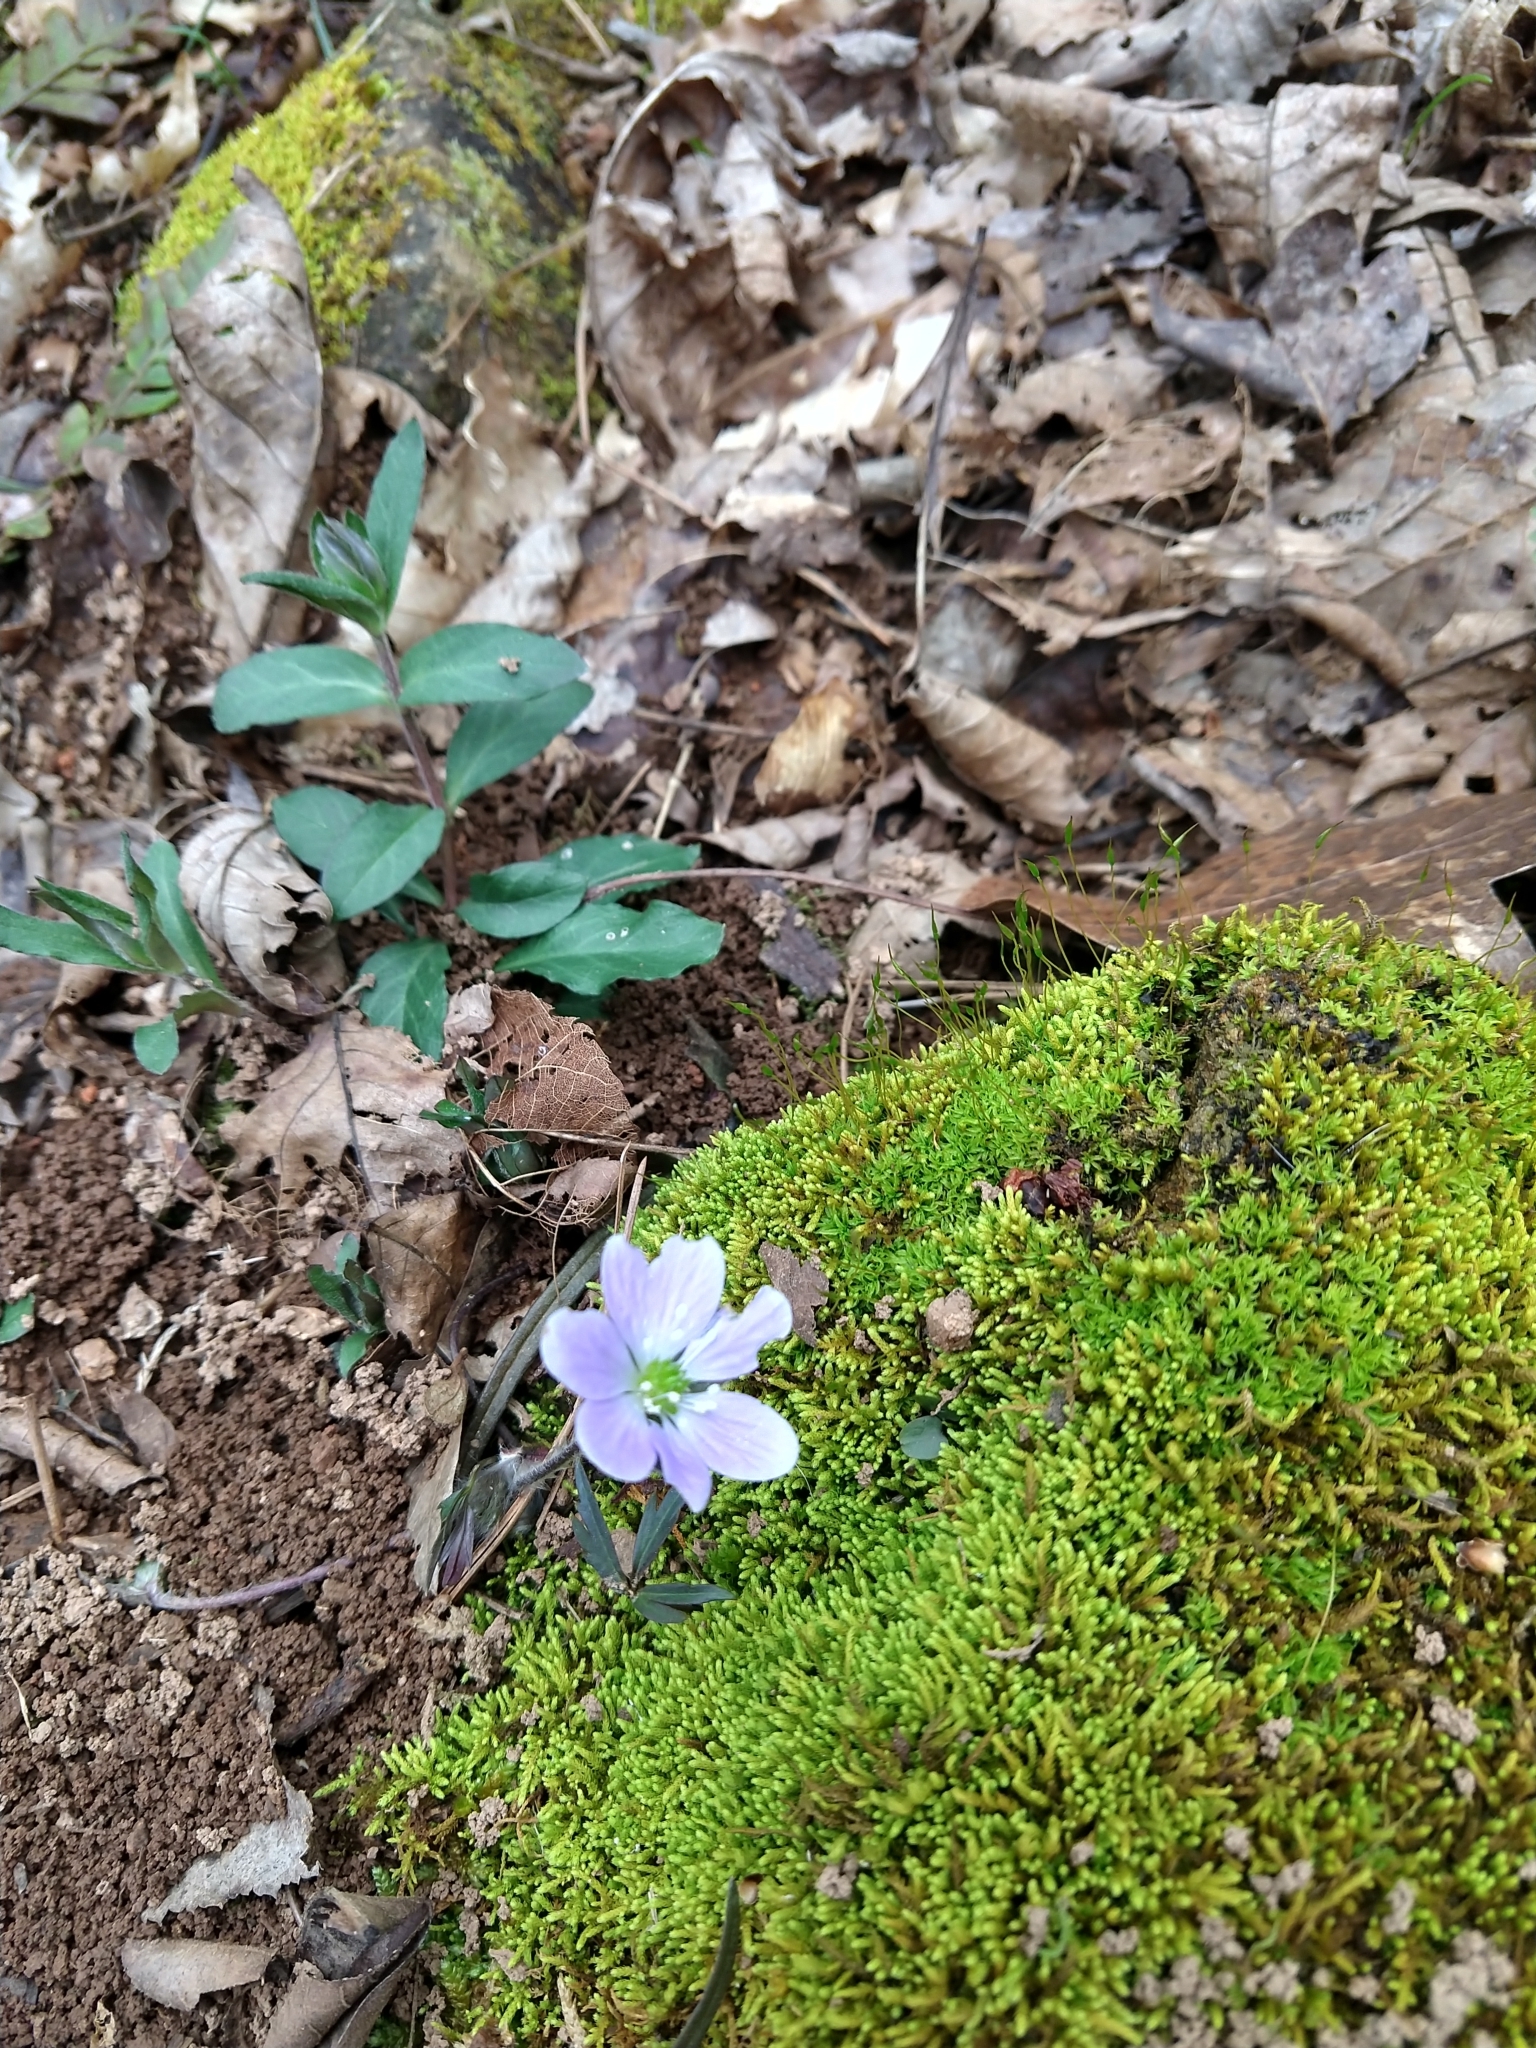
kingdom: Plantae
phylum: Tracheophyta
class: Magnoliopsida
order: Ranunculales
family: Ranunculaceae
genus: Hepatica
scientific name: Hepatica americana
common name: American hepatica
